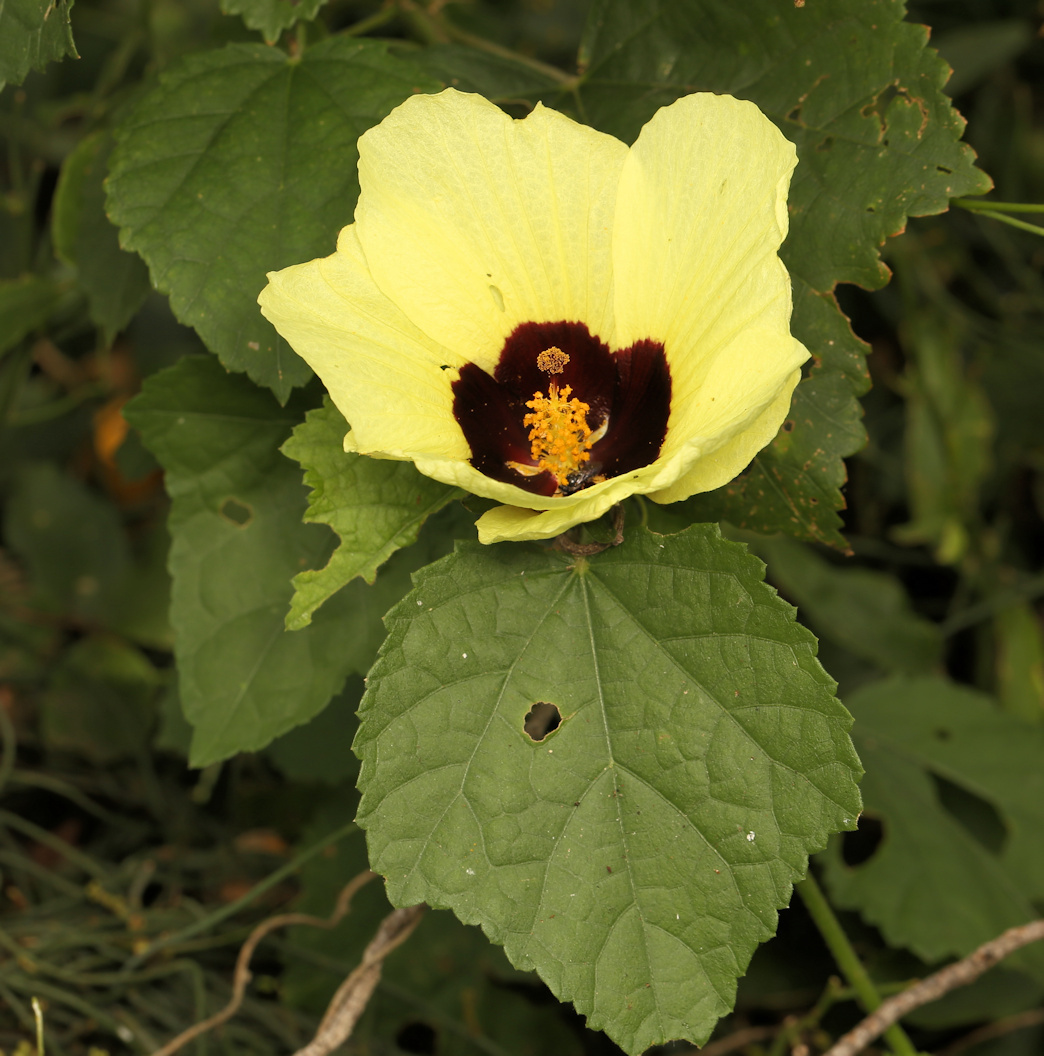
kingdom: Plantae
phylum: Tracheophyta
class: Magnoliopsida
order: Malvales
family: Malvaceae
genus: Hibiscus
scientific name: Hibiscus calyphyllus
